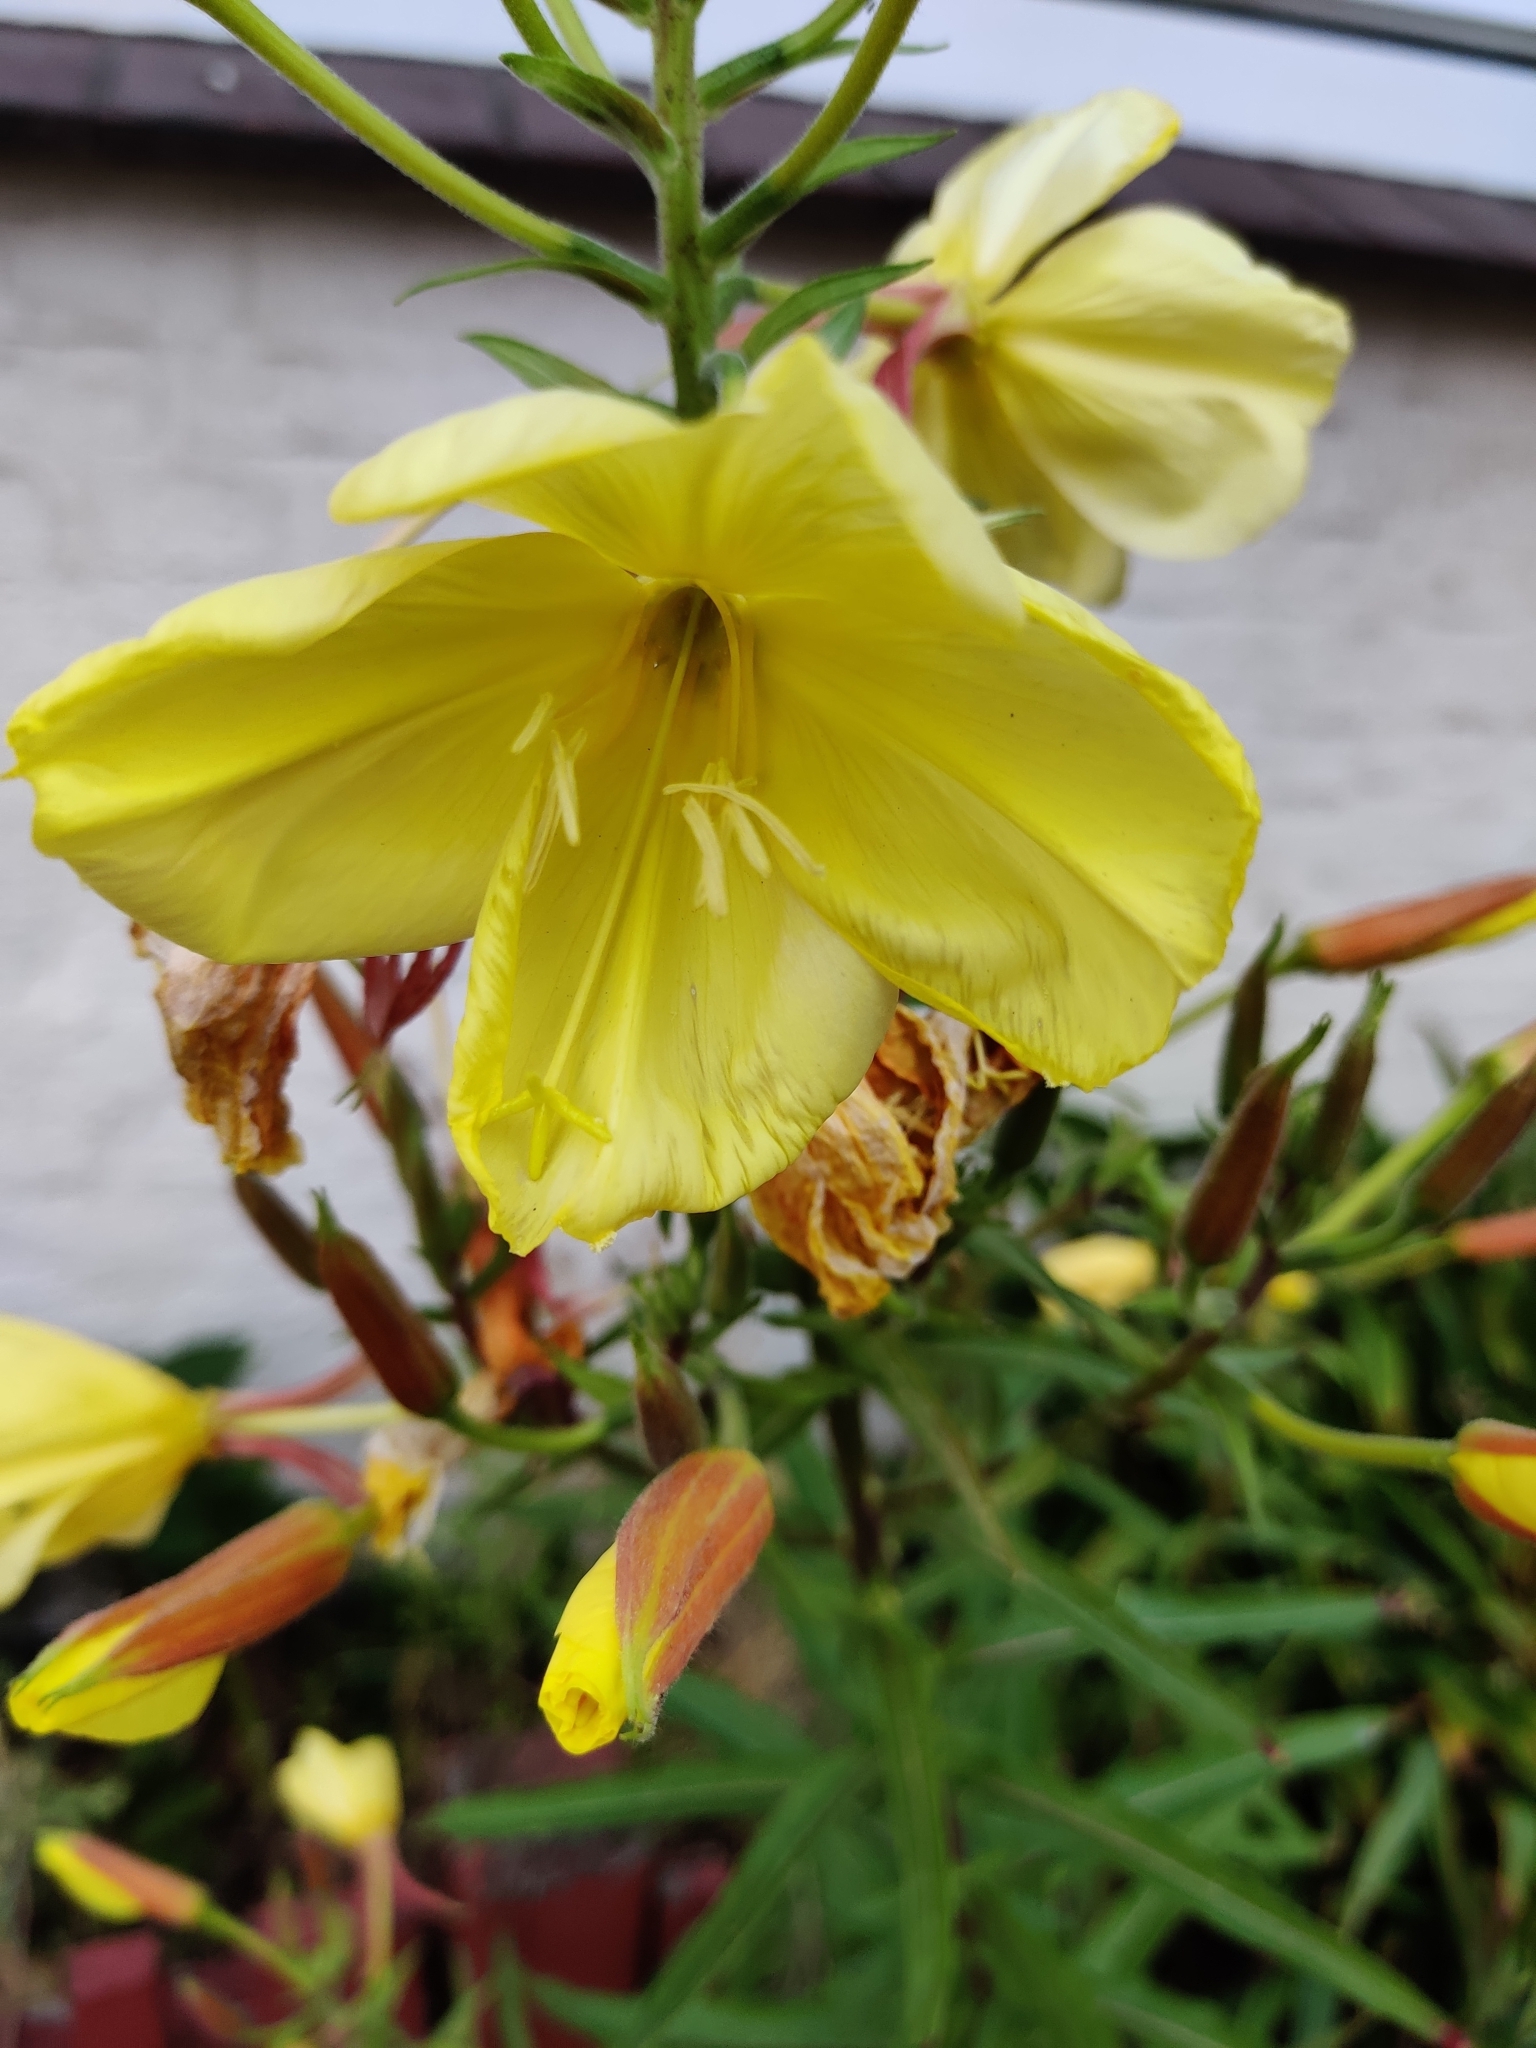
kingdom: Plantae
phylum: Tracheophyta
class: Magnoliopsida
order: Myrtales
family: Onagraceae
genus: Oenothera
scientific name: Oenothera glazioviana
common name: Large-flowered evening-primrose
